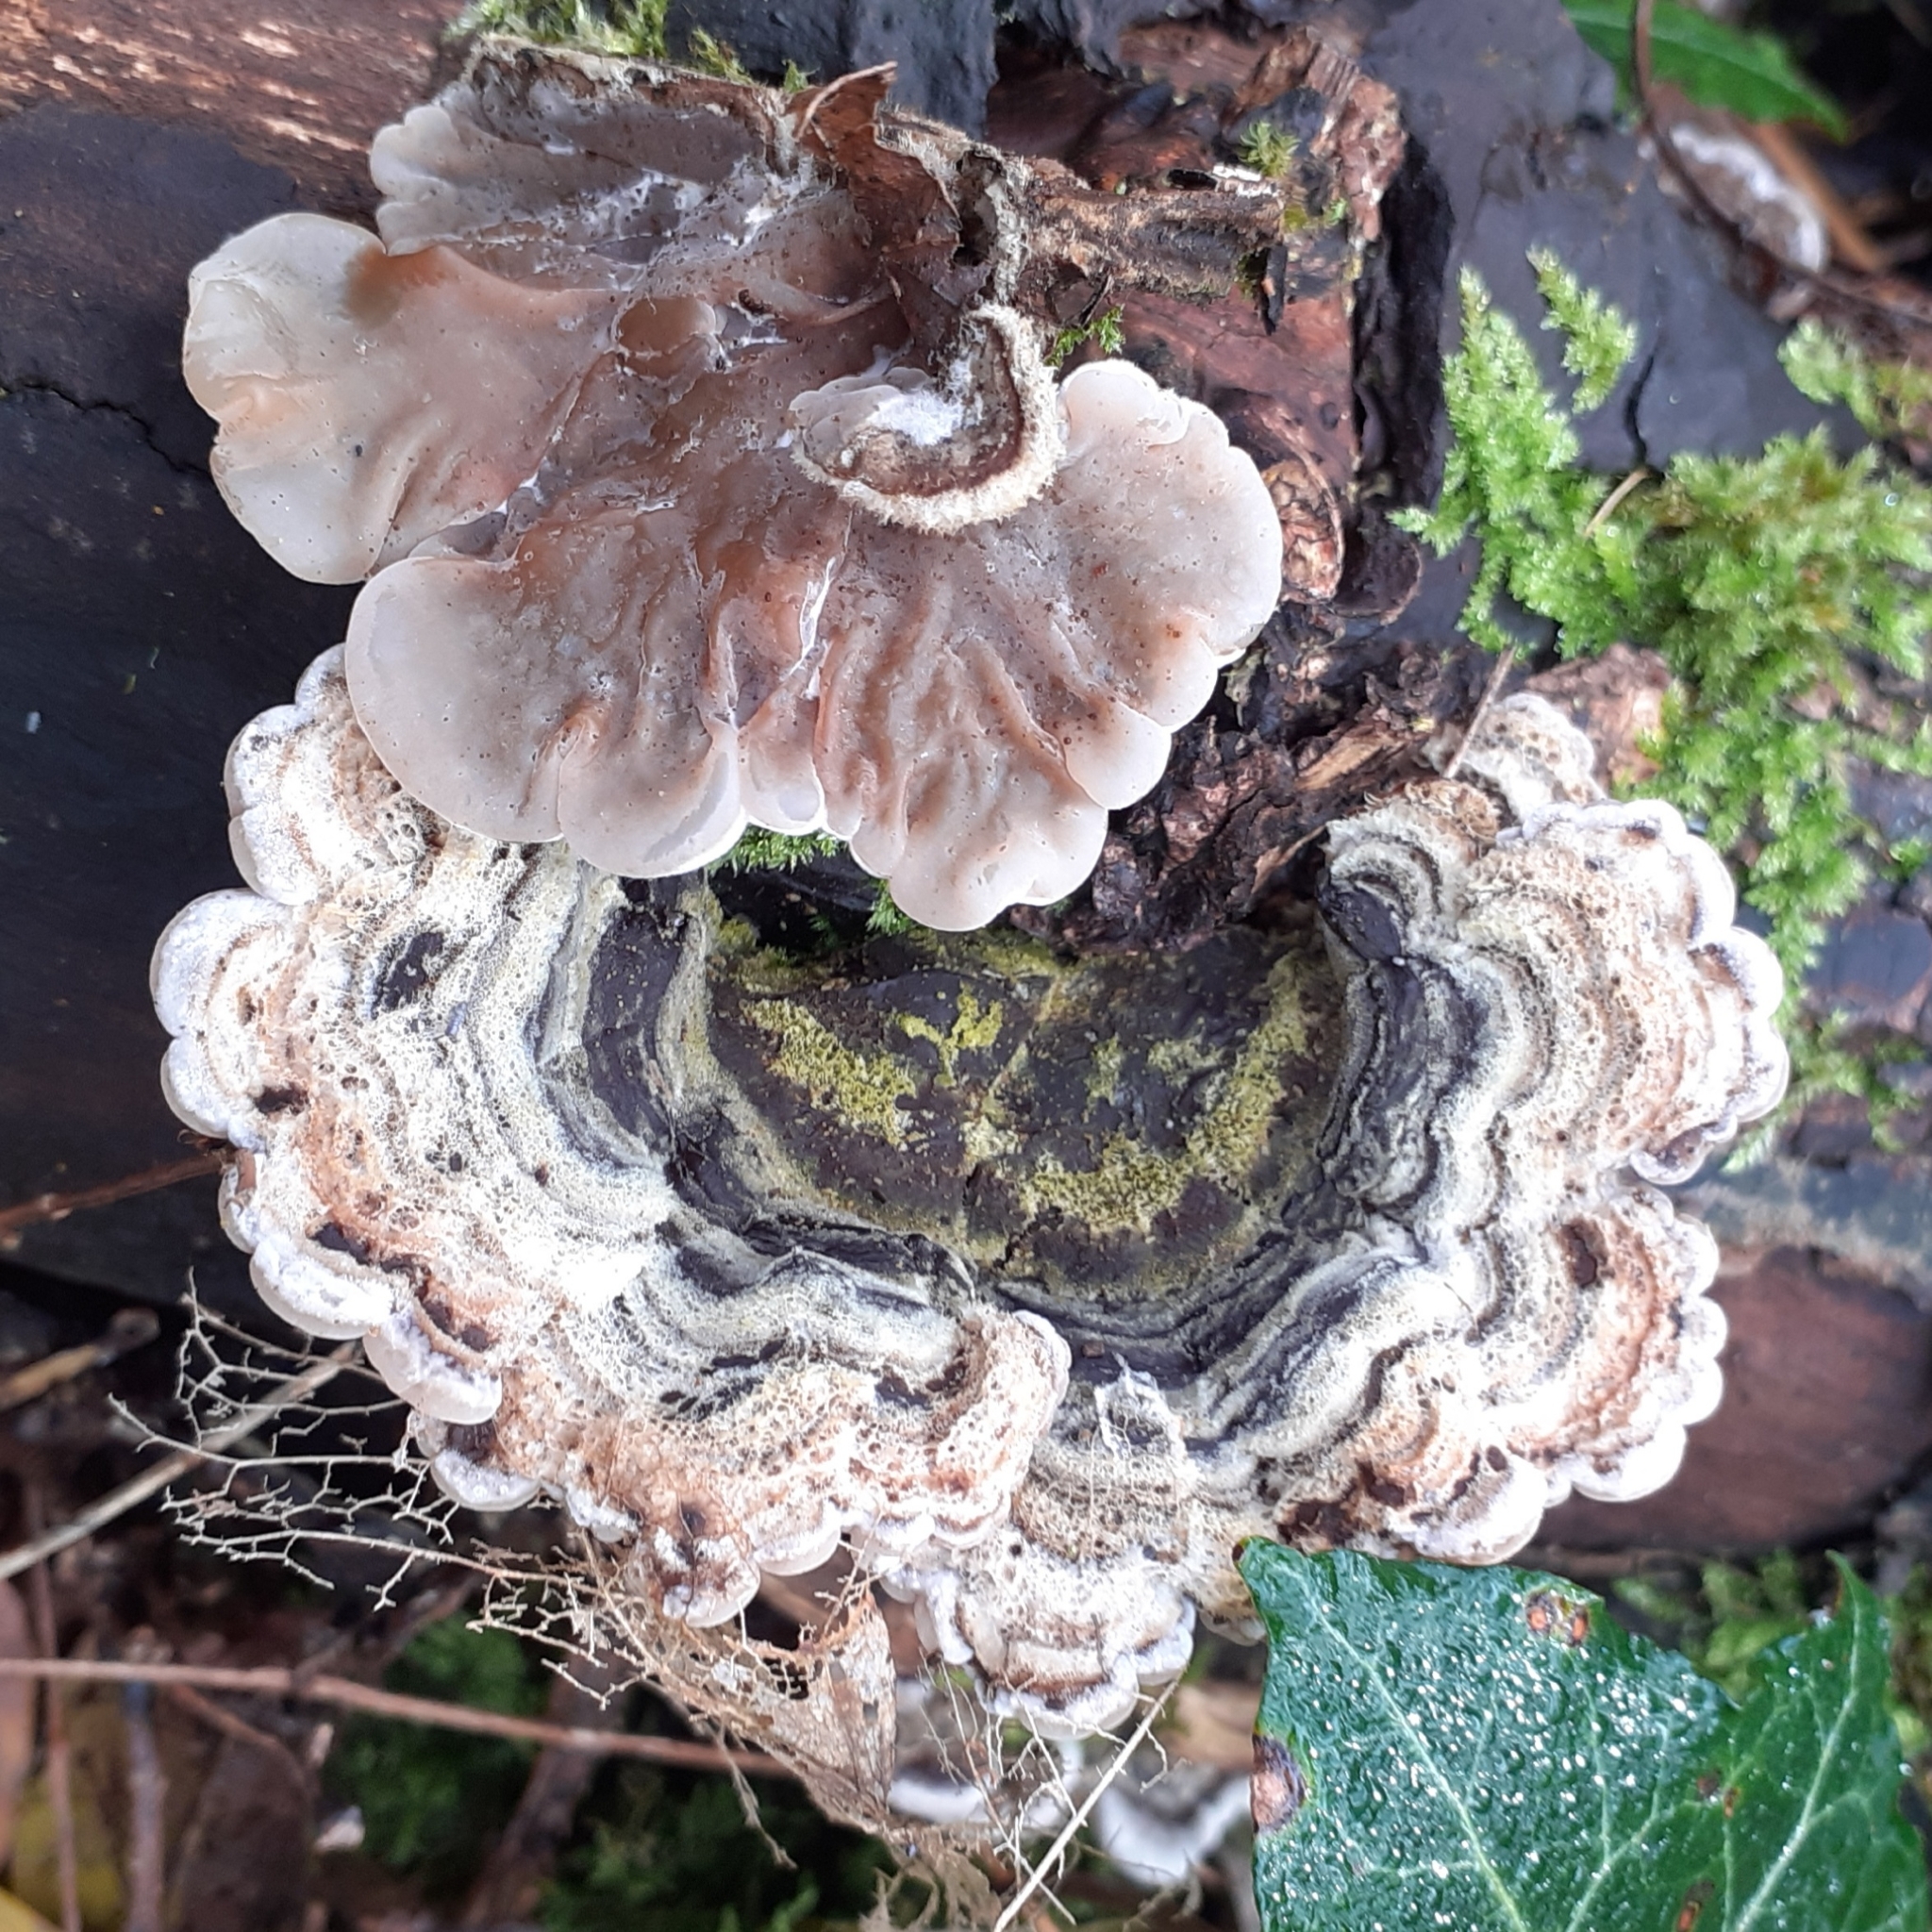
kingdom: Fungi
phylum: Basidiomycota
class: Agaricomycetes
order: Auriculariales
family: Auriculariaceae
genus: Auricularia
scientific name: Auricularia mesenterica
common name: Tripe fungus
